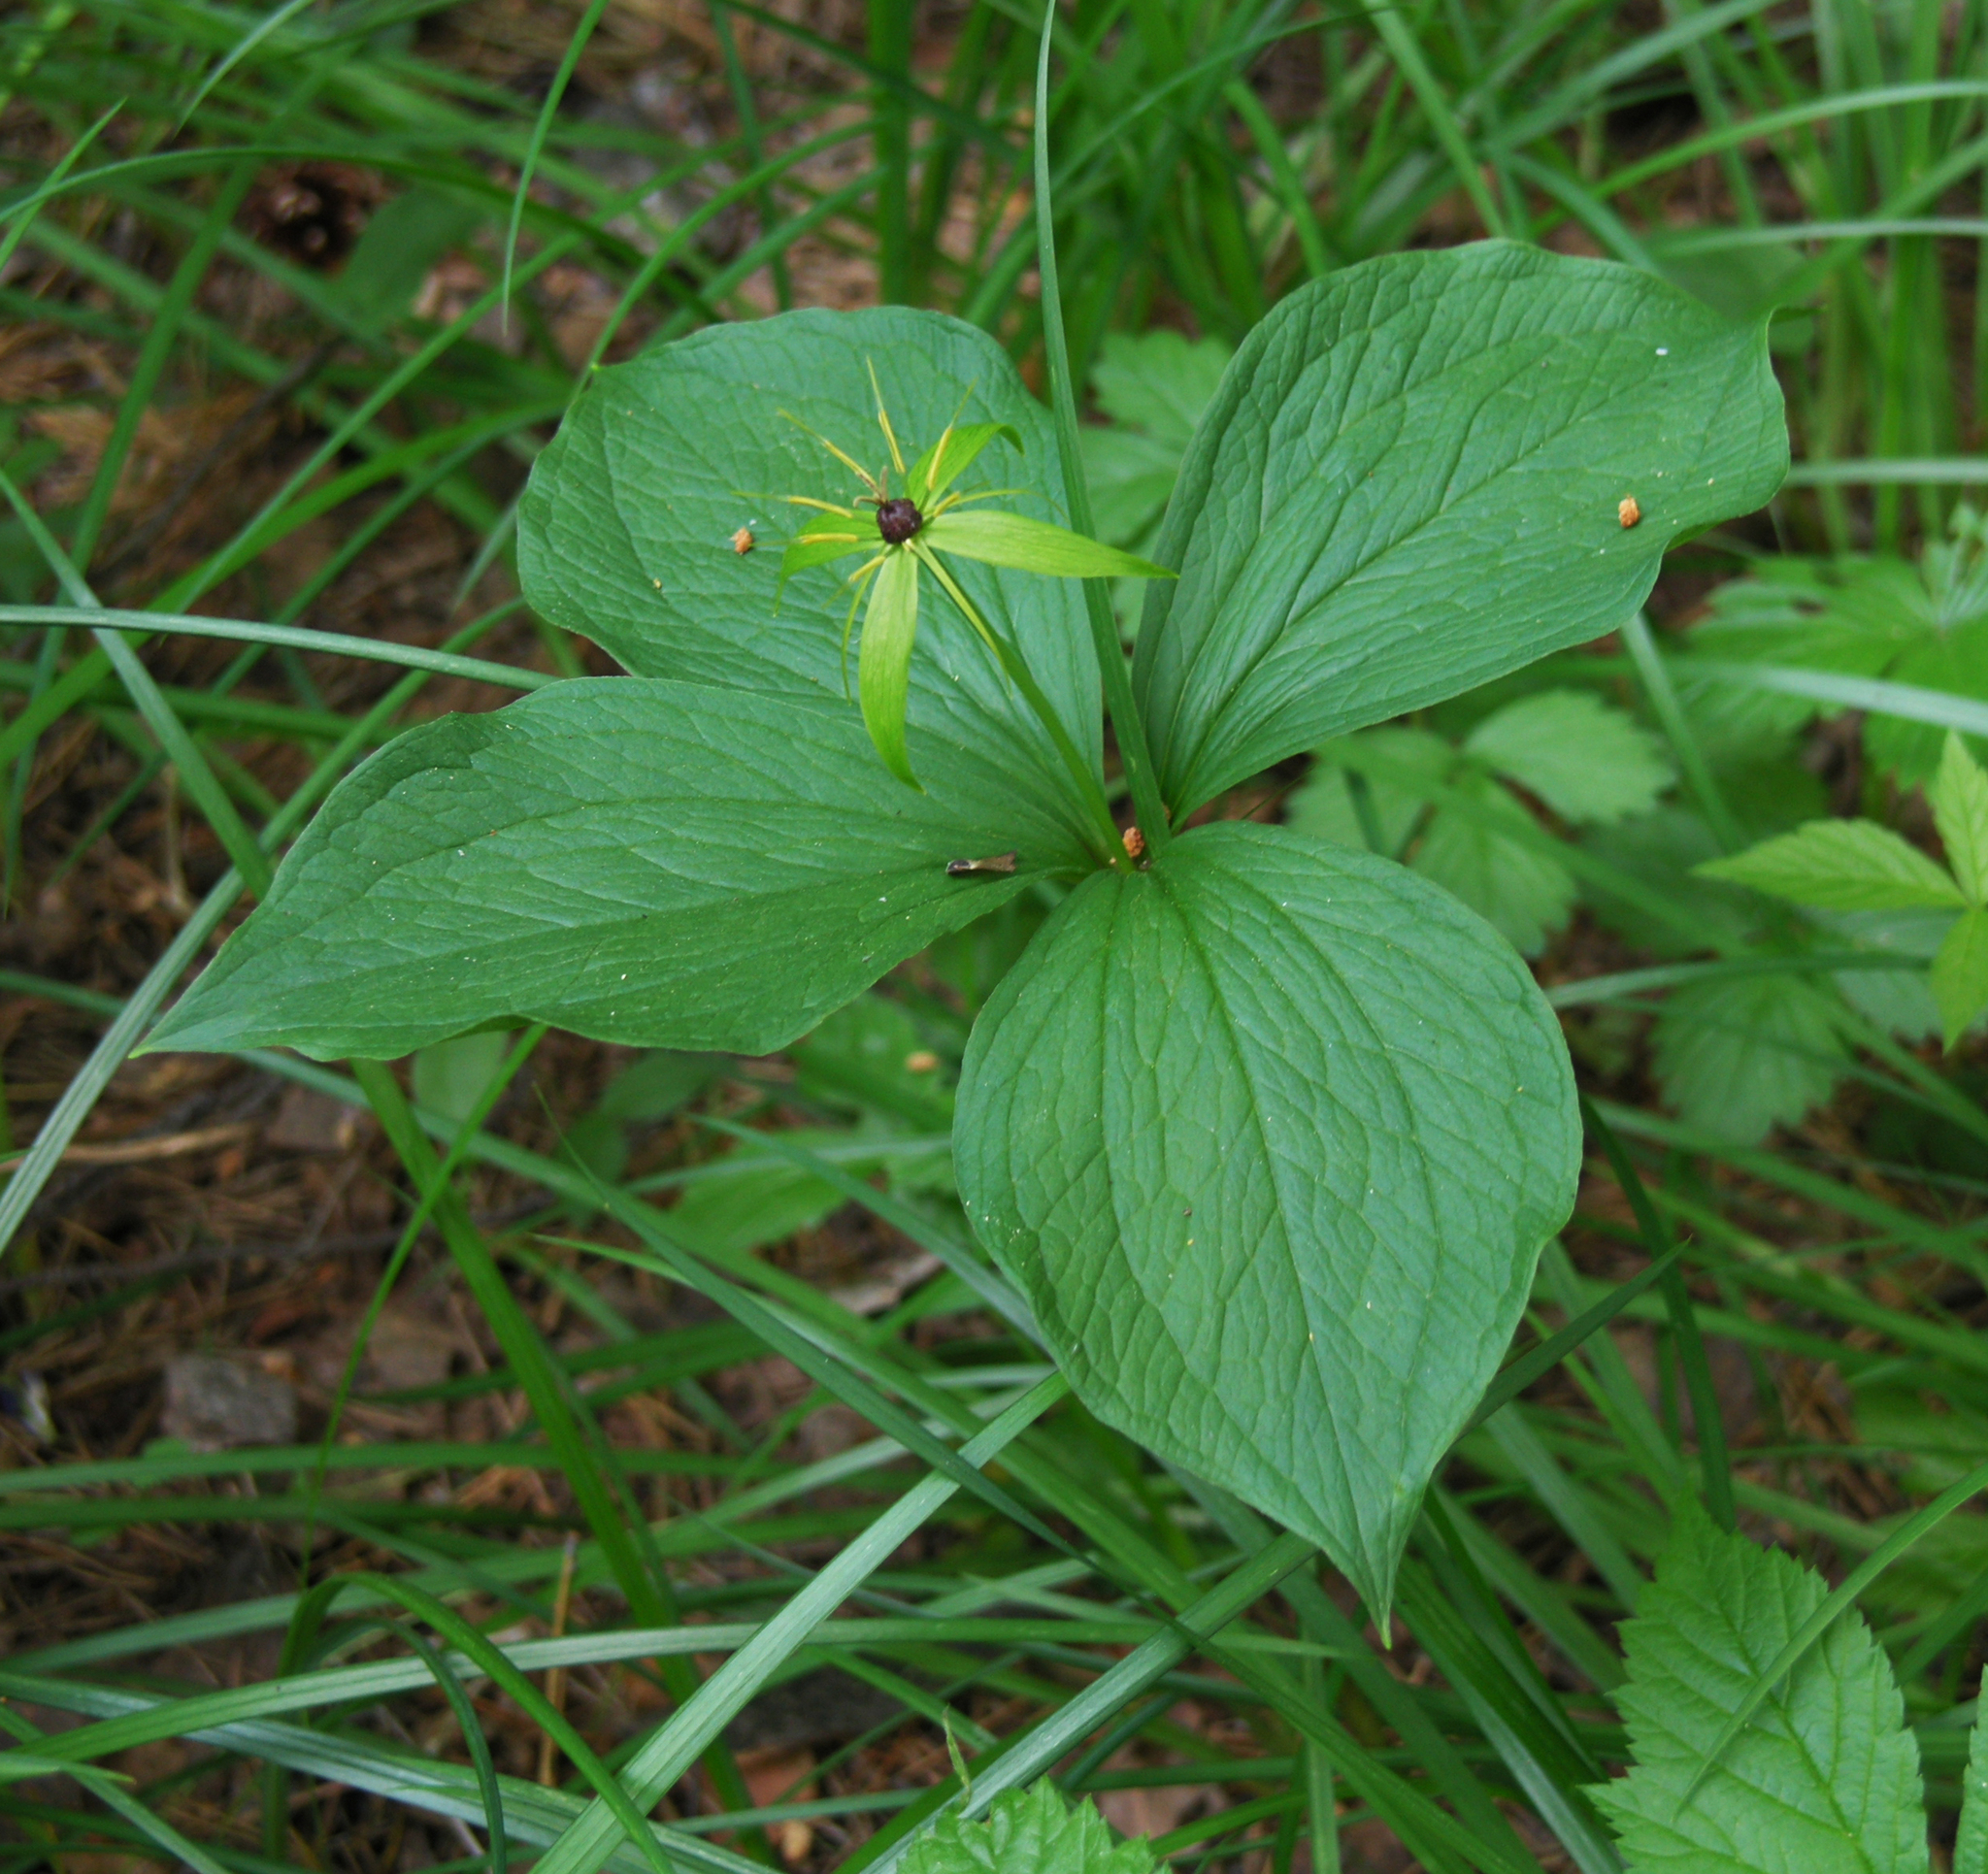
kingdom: Plantae
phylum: Tracheophyta
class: Liliopsida
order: Liliales
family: Melanthiaceae
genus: Paris
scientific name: Paris quadrifolia
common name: Herb-paris
